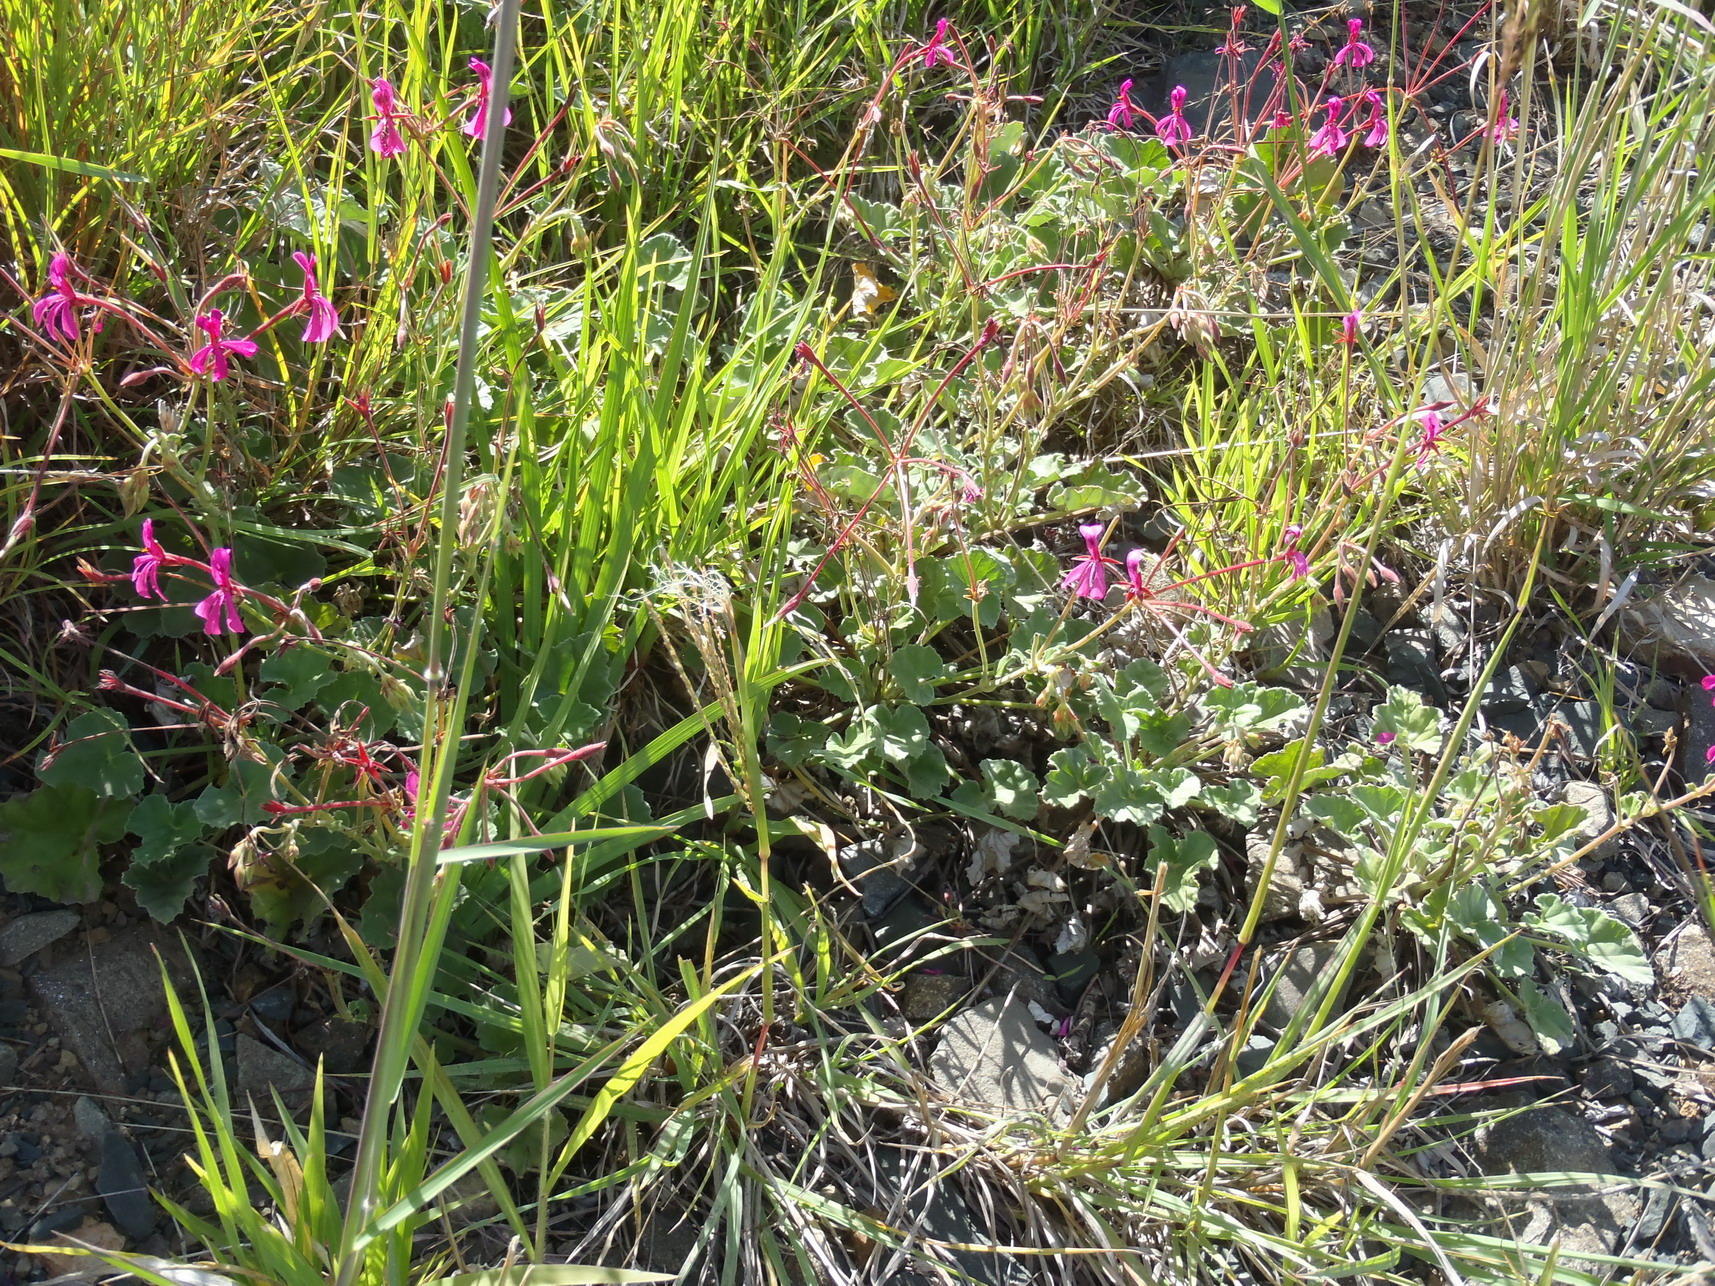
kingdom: Plantae
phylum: Tracheophyta
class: Magnoliopsida
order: Geraniales
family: Geraniaceae
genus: Pelargonium
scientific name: Pelargonium reniforme
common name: Kidney-leaf pelargonium
